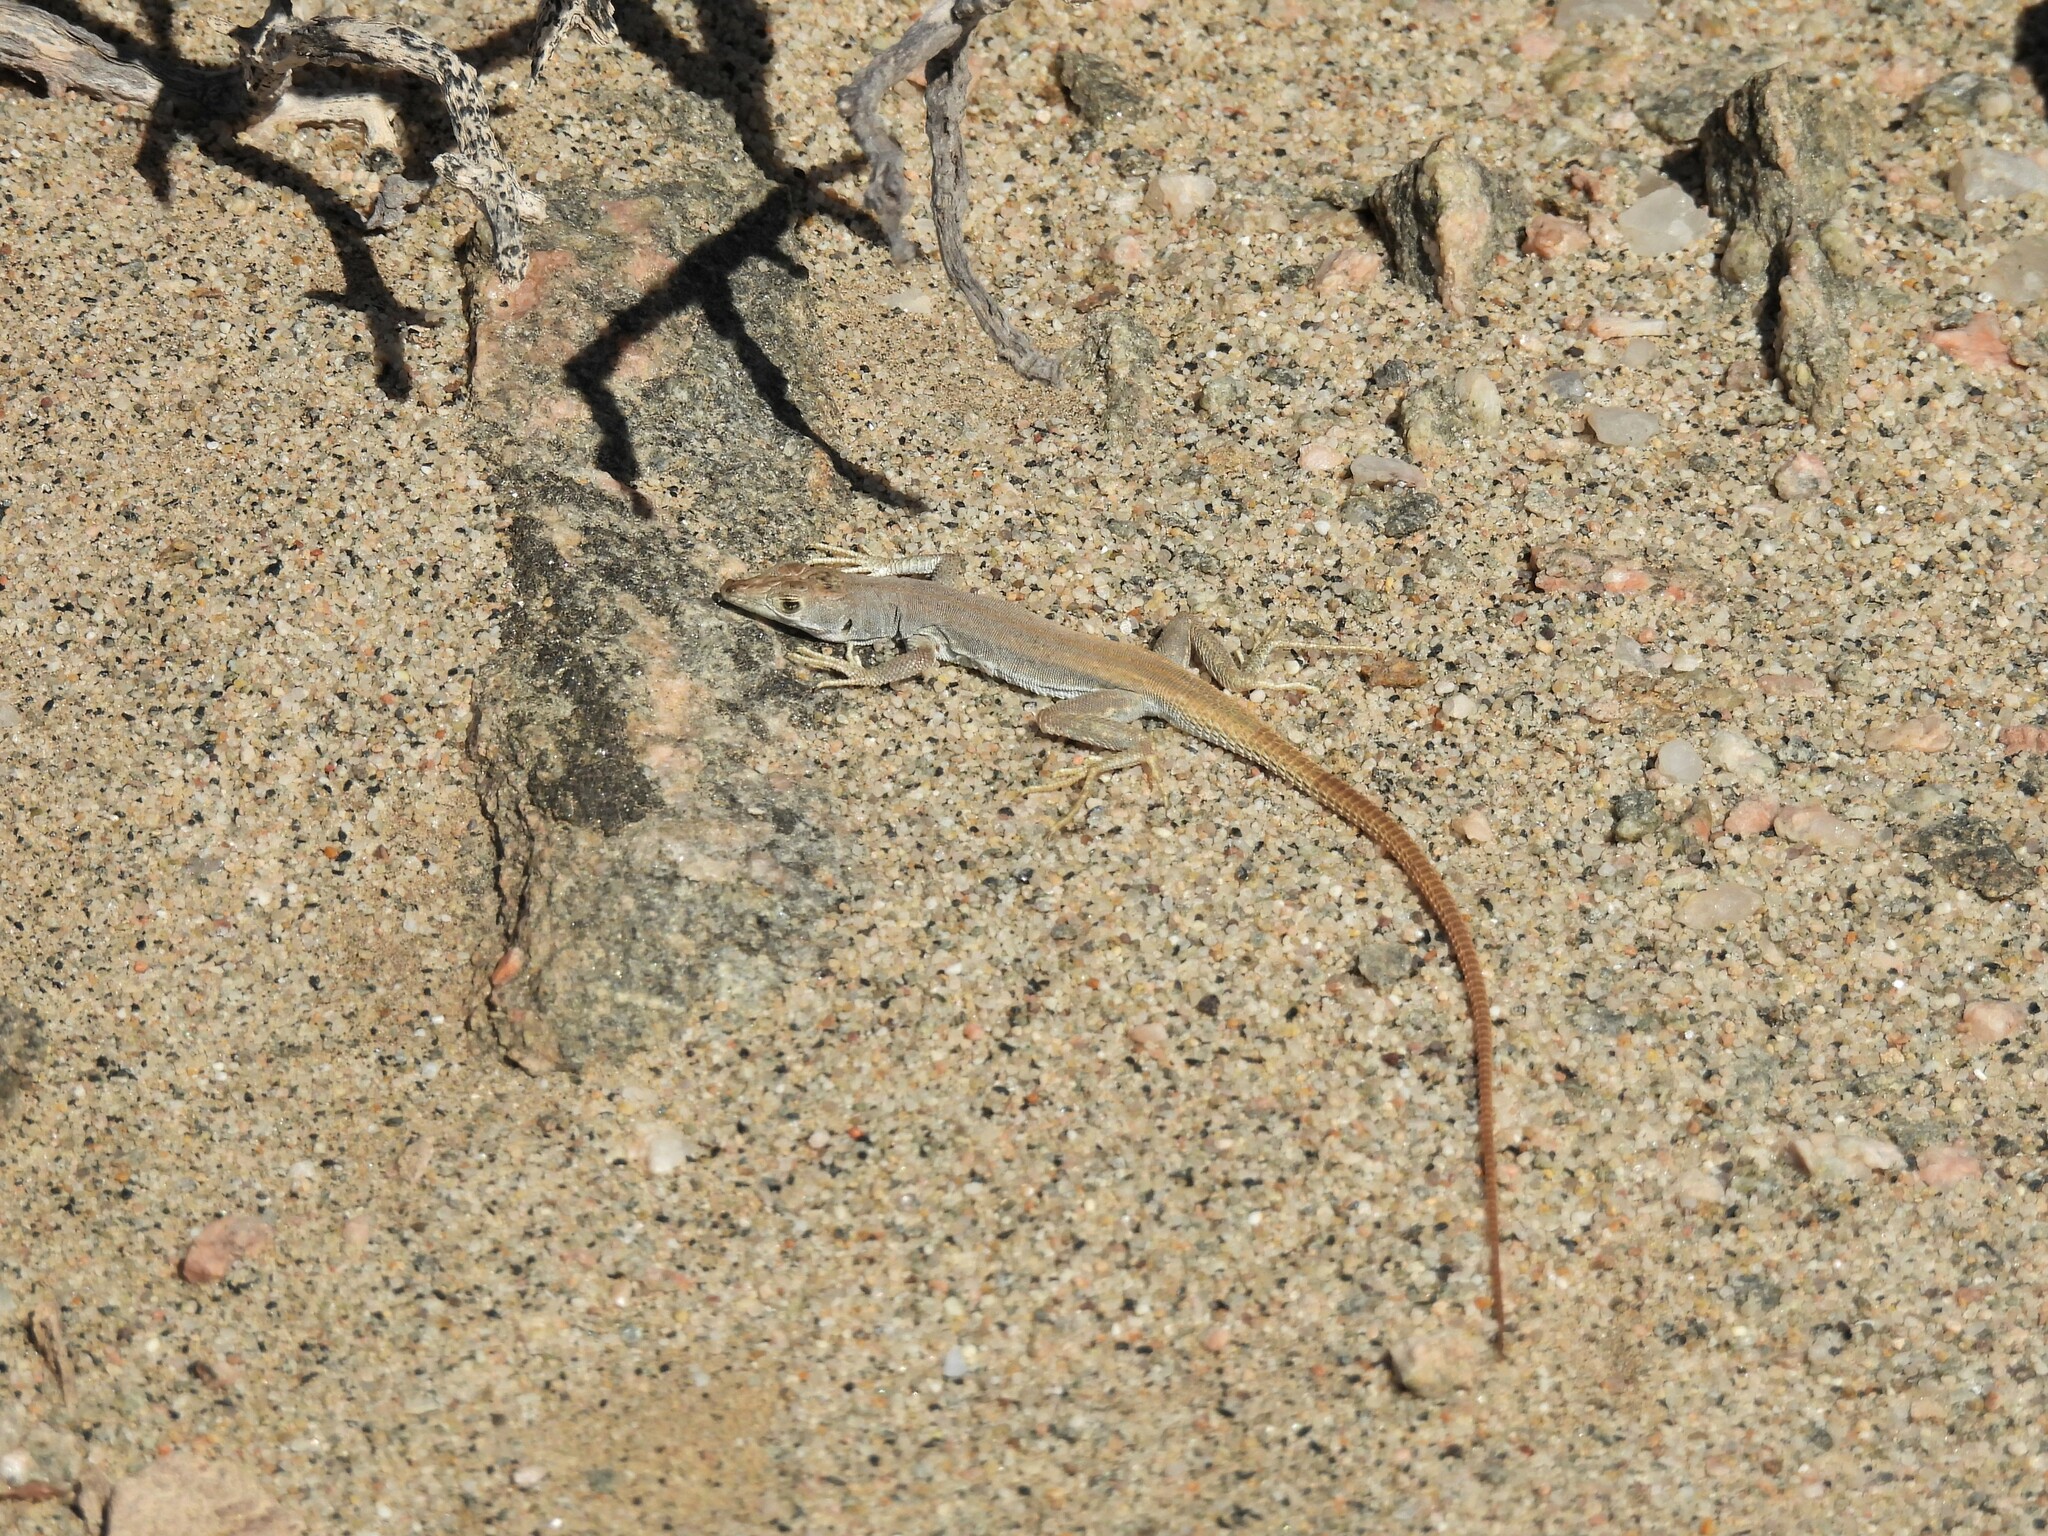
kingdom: Animalia
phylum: Chordata
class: Squamata
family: Lacertidae
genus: Pedioplanis
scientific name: Pedioplanis lineoocellata
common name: Spotted sand lizard
